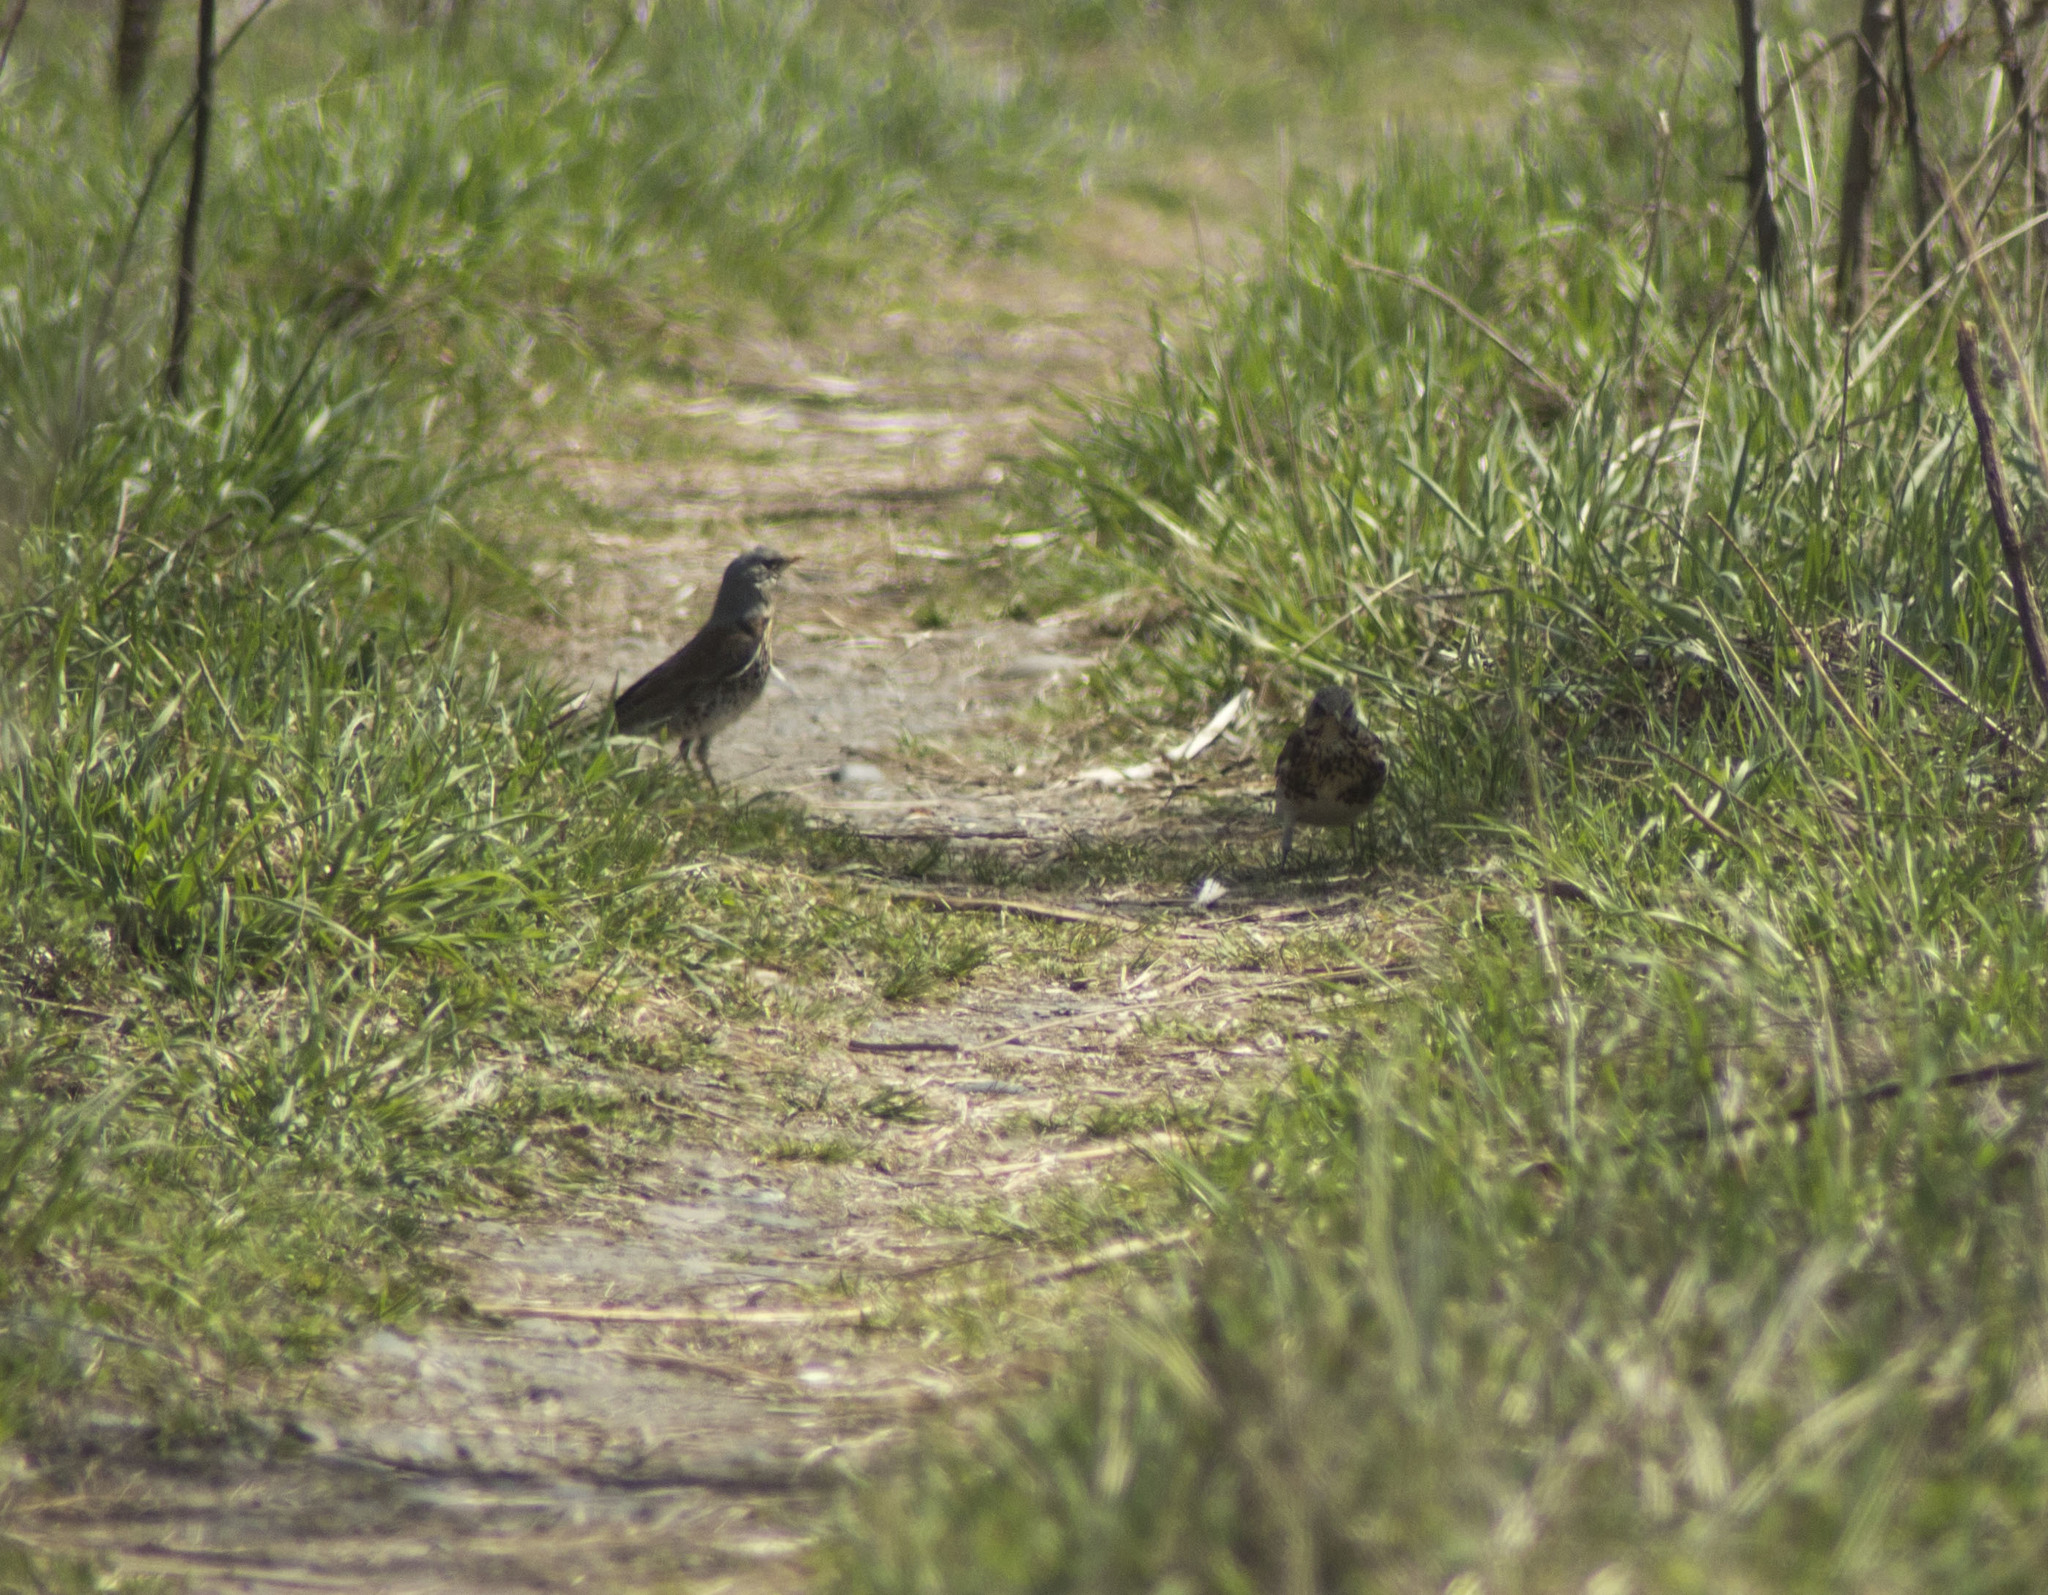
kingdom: Animalia
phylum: Chordata
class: Aves
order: Passeriformes
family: Turdidae
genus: Turdus
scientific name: Turdus pilaris
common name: Fieldfare
